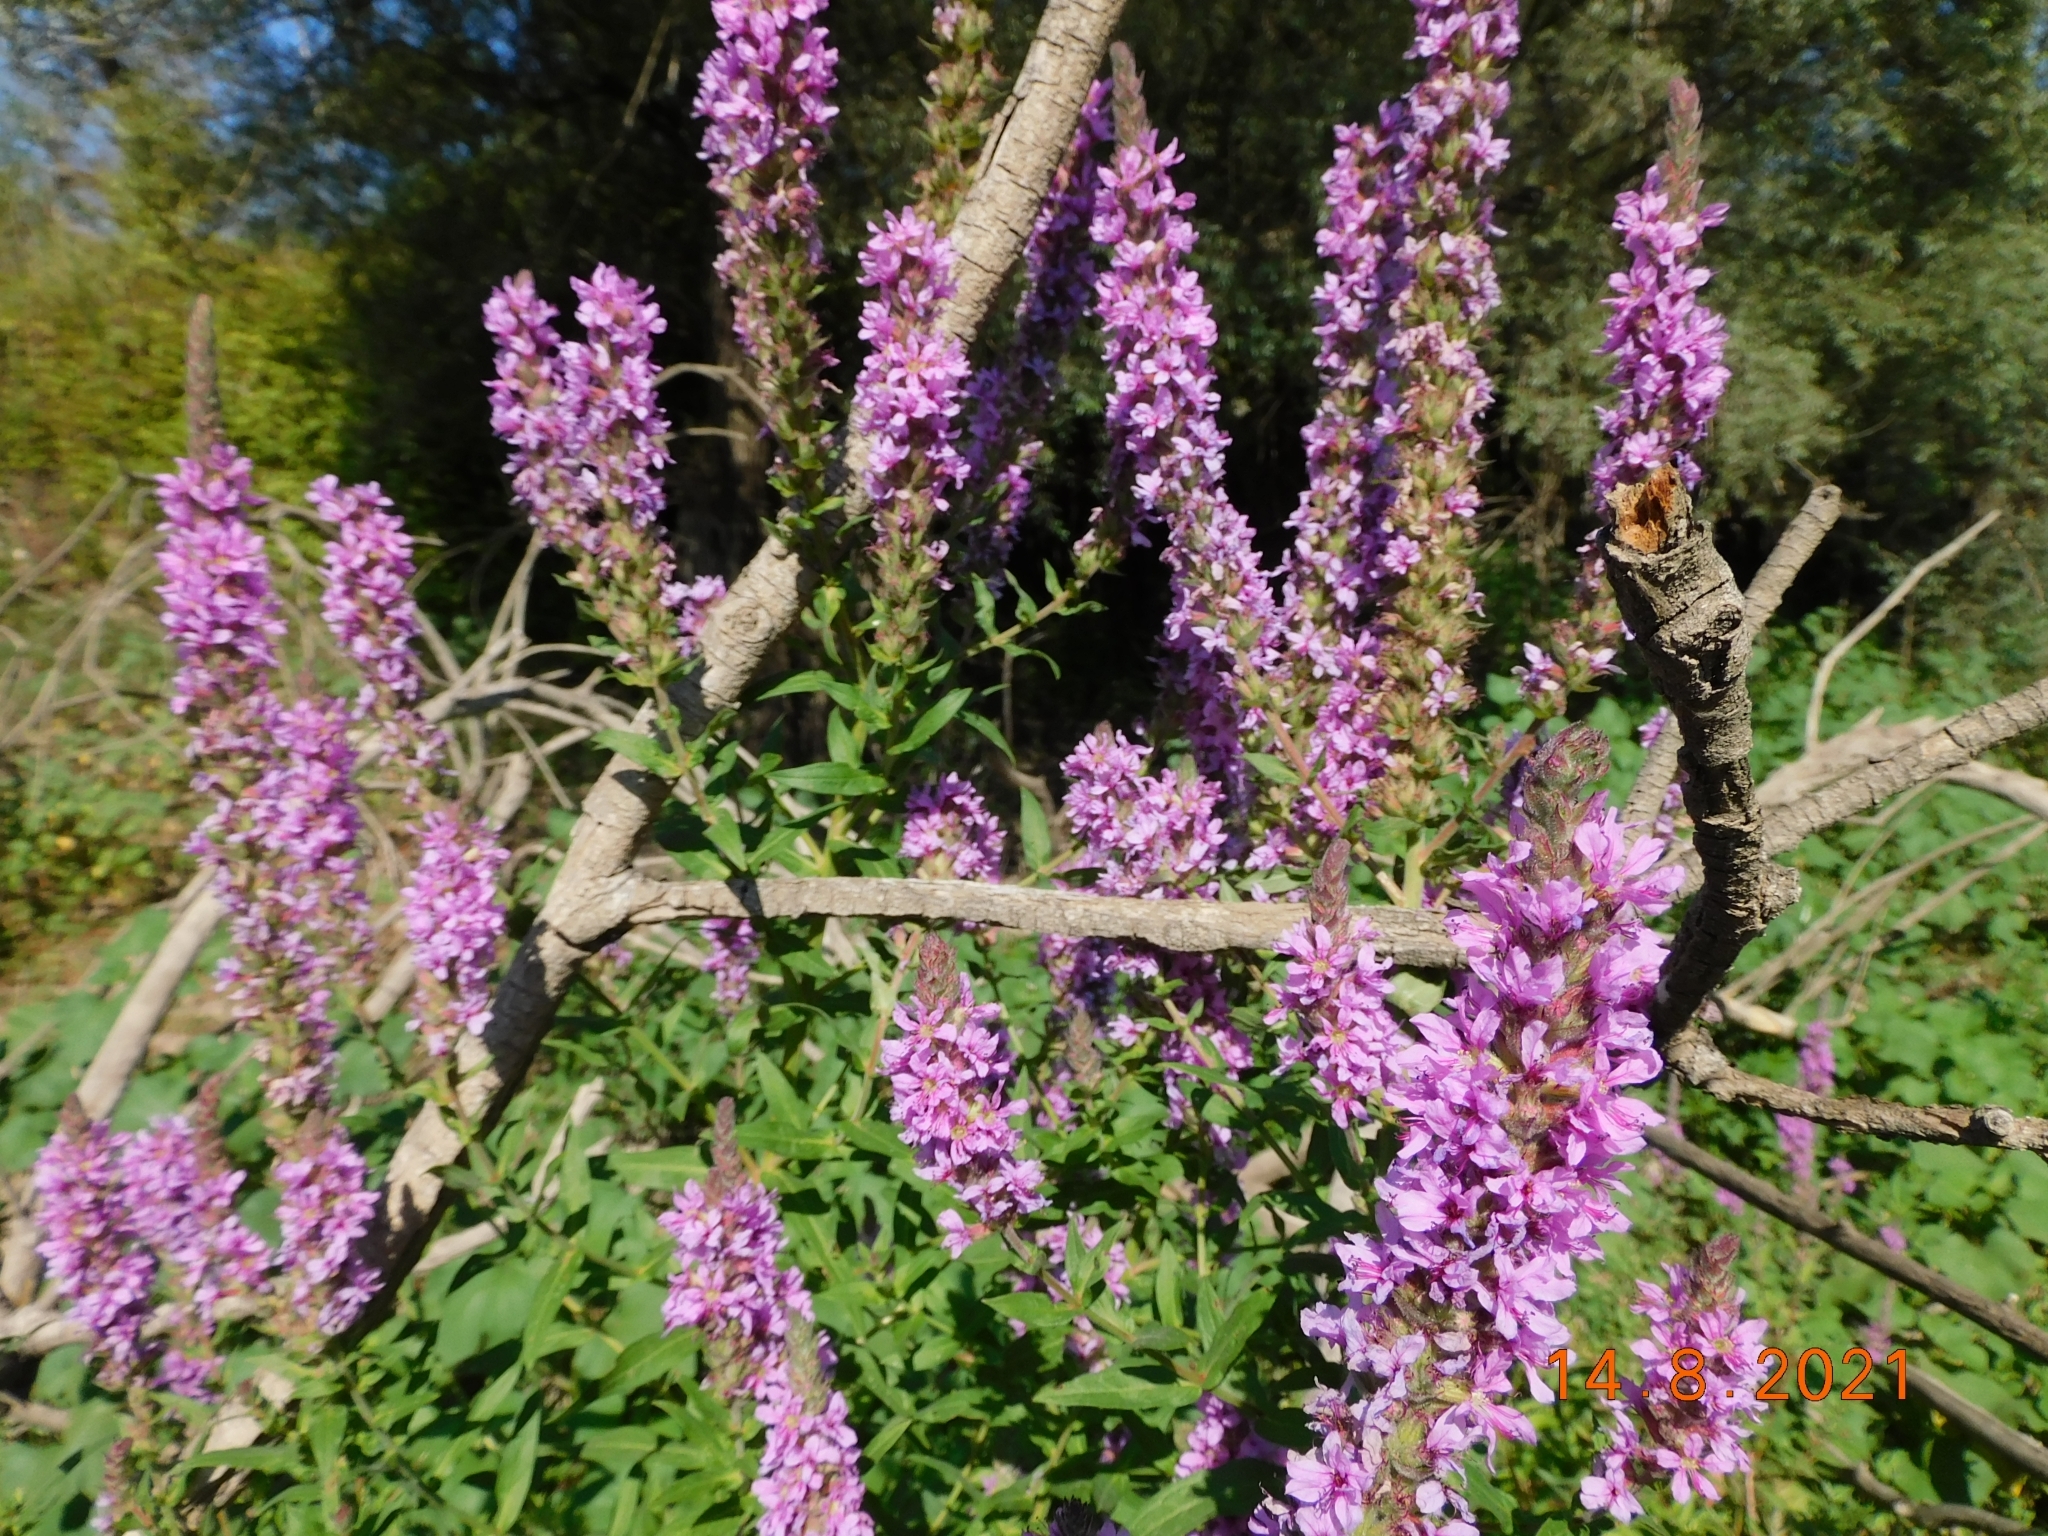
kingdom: Plantae
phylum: Tracheophyta
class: Magnoliopsida
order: Myrtales
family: Lythraceae
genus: Lythrum
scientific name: Lythrum salicaria
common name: Purple loosestrife
